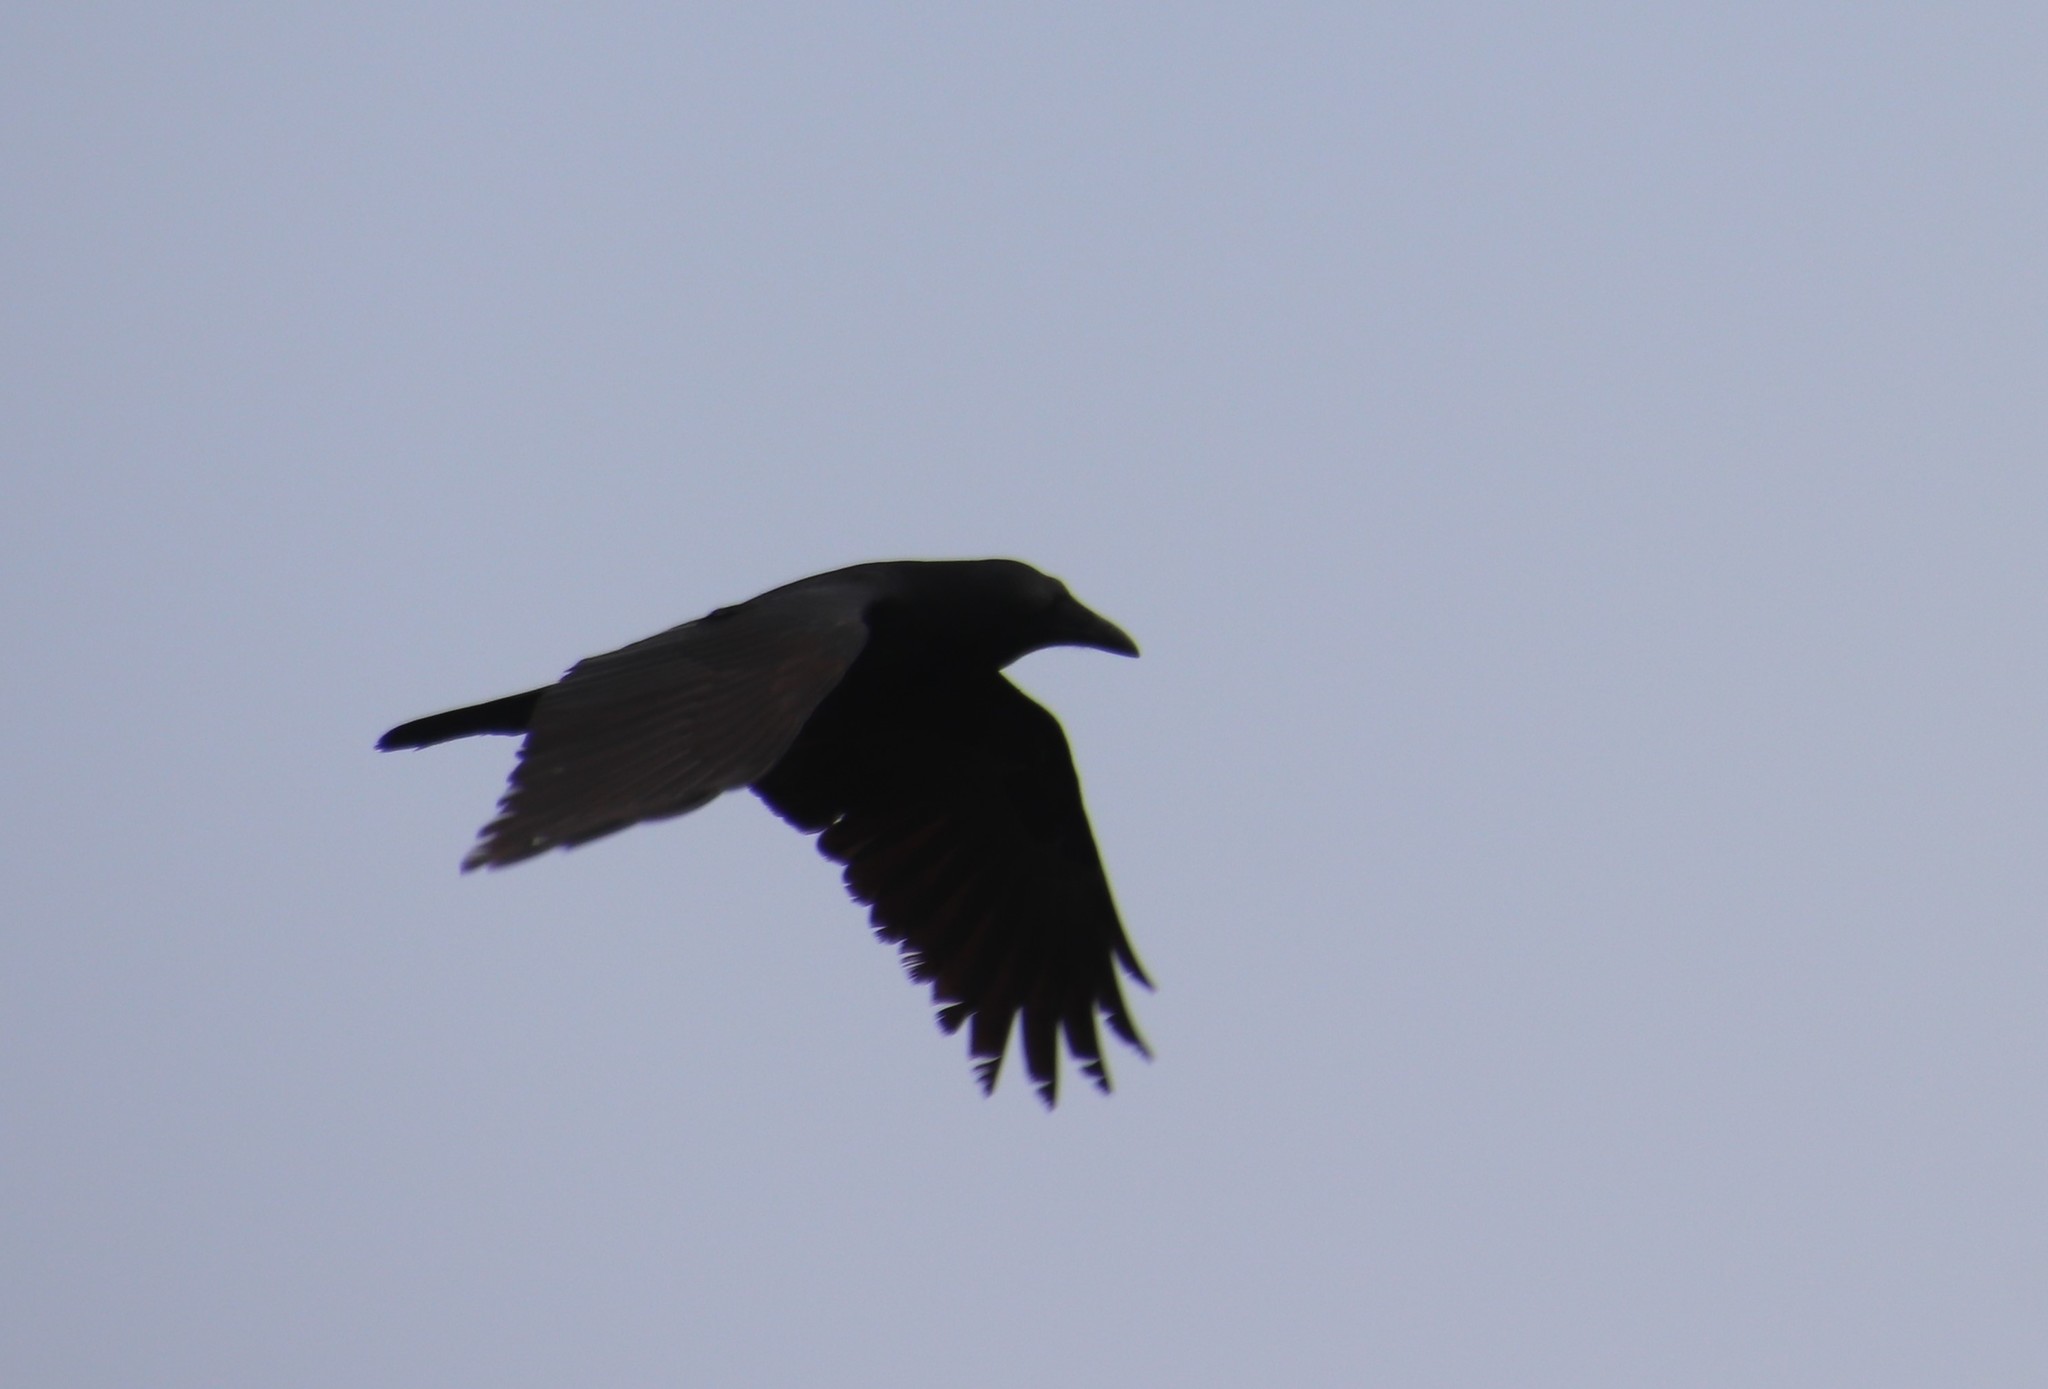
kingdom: Animalia
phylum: Chordata
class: Aves
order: Passeriformes
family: Corvidae
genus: Corvus
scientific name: Corvus brachyrhynchos
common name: American crow
